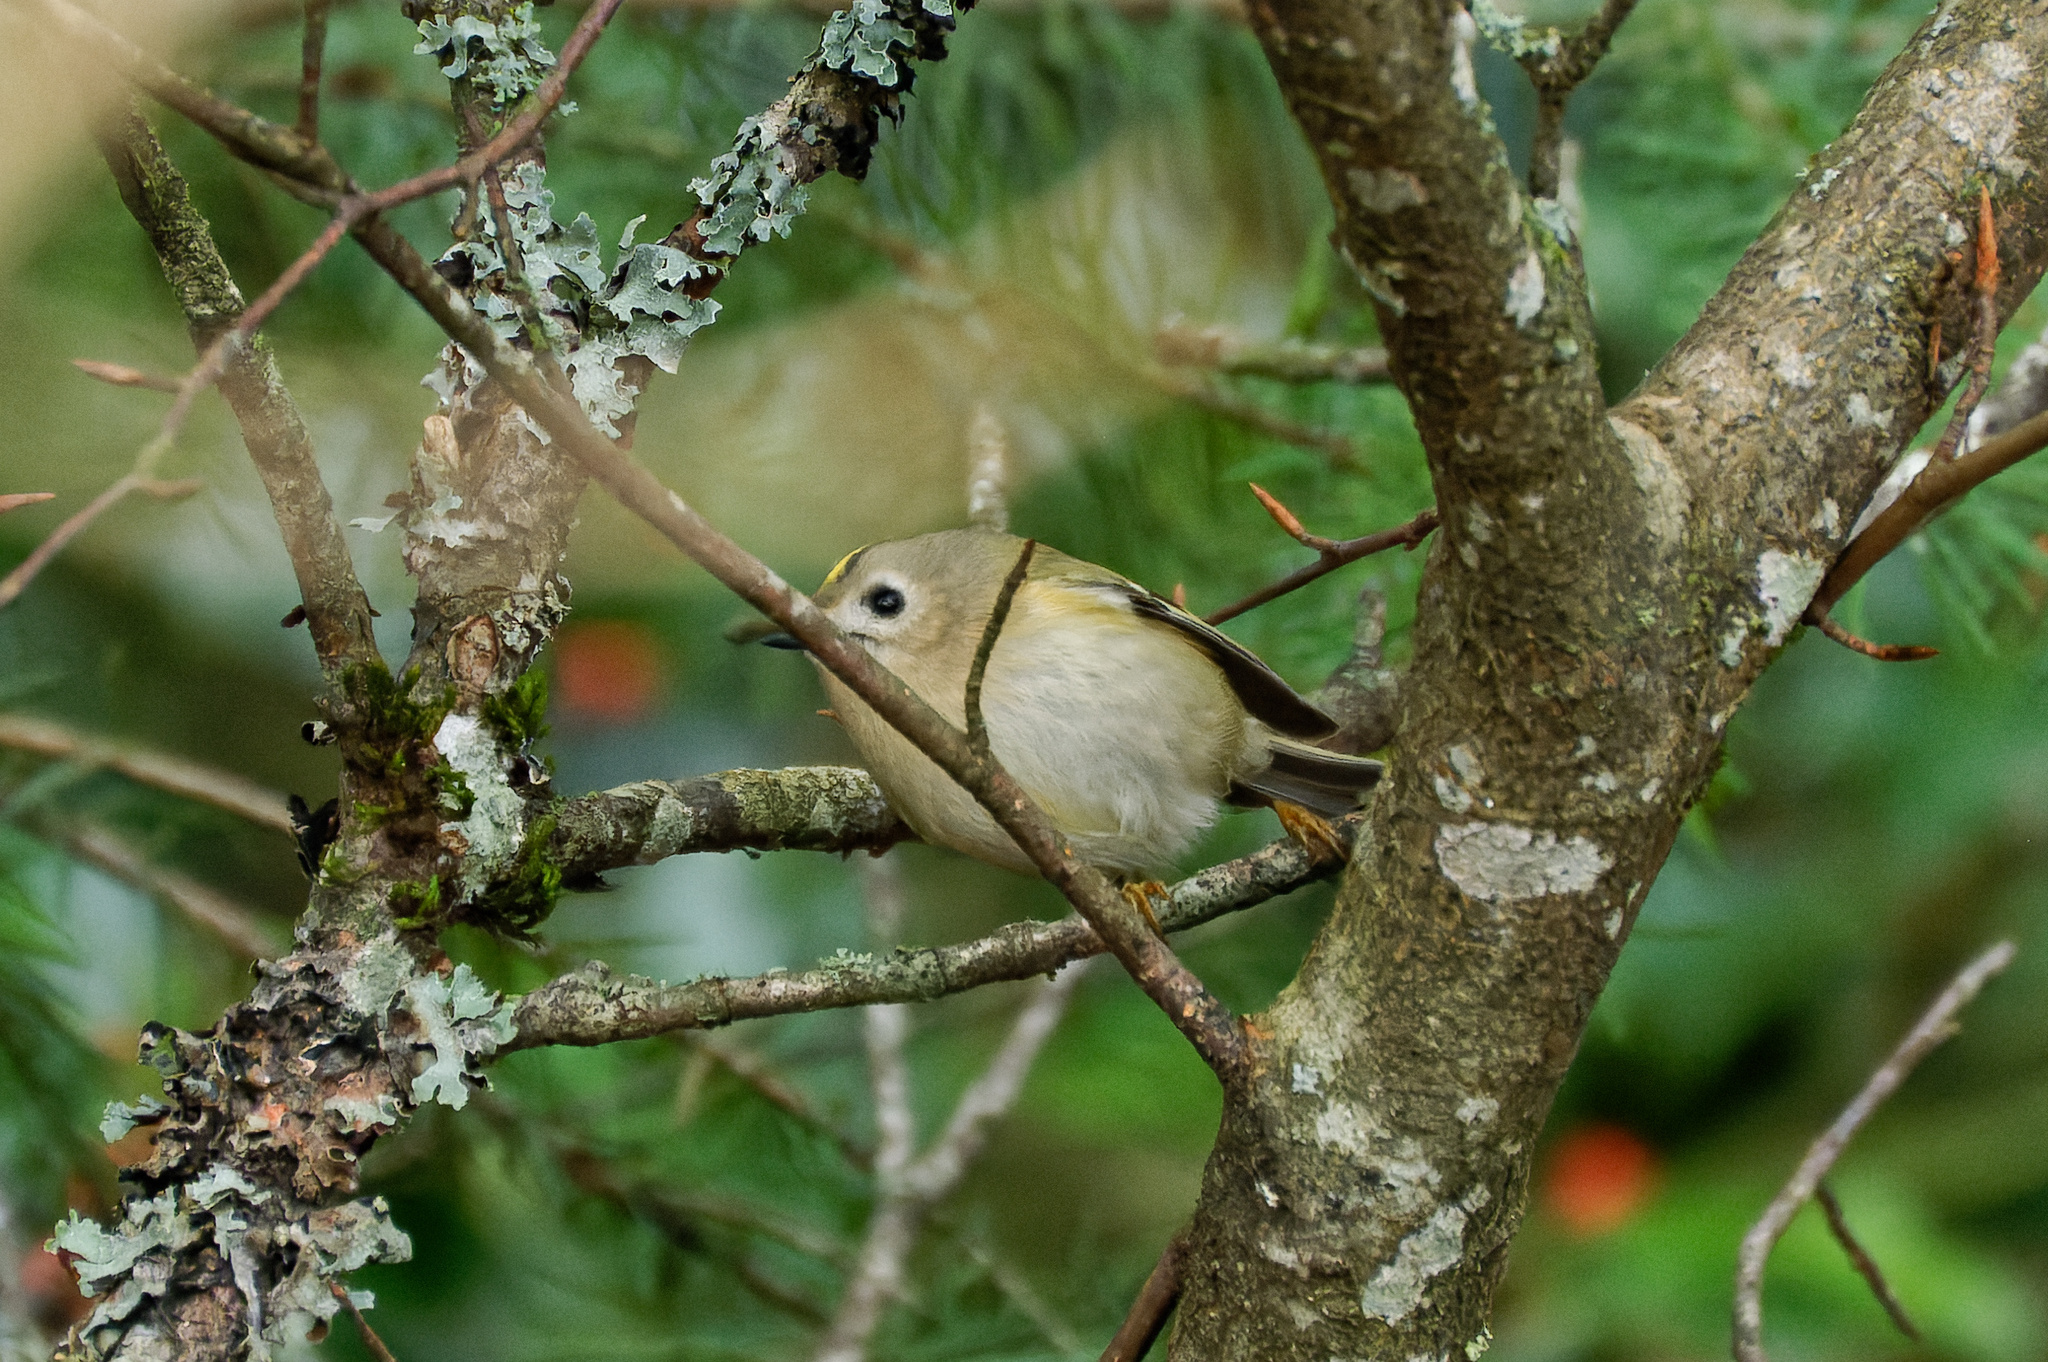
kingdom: Animalia
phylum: Chordata
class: Aves
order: Passeriformes
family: Regulidae
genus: Regulus
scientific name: Regulus regulus
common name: Goldcrest
